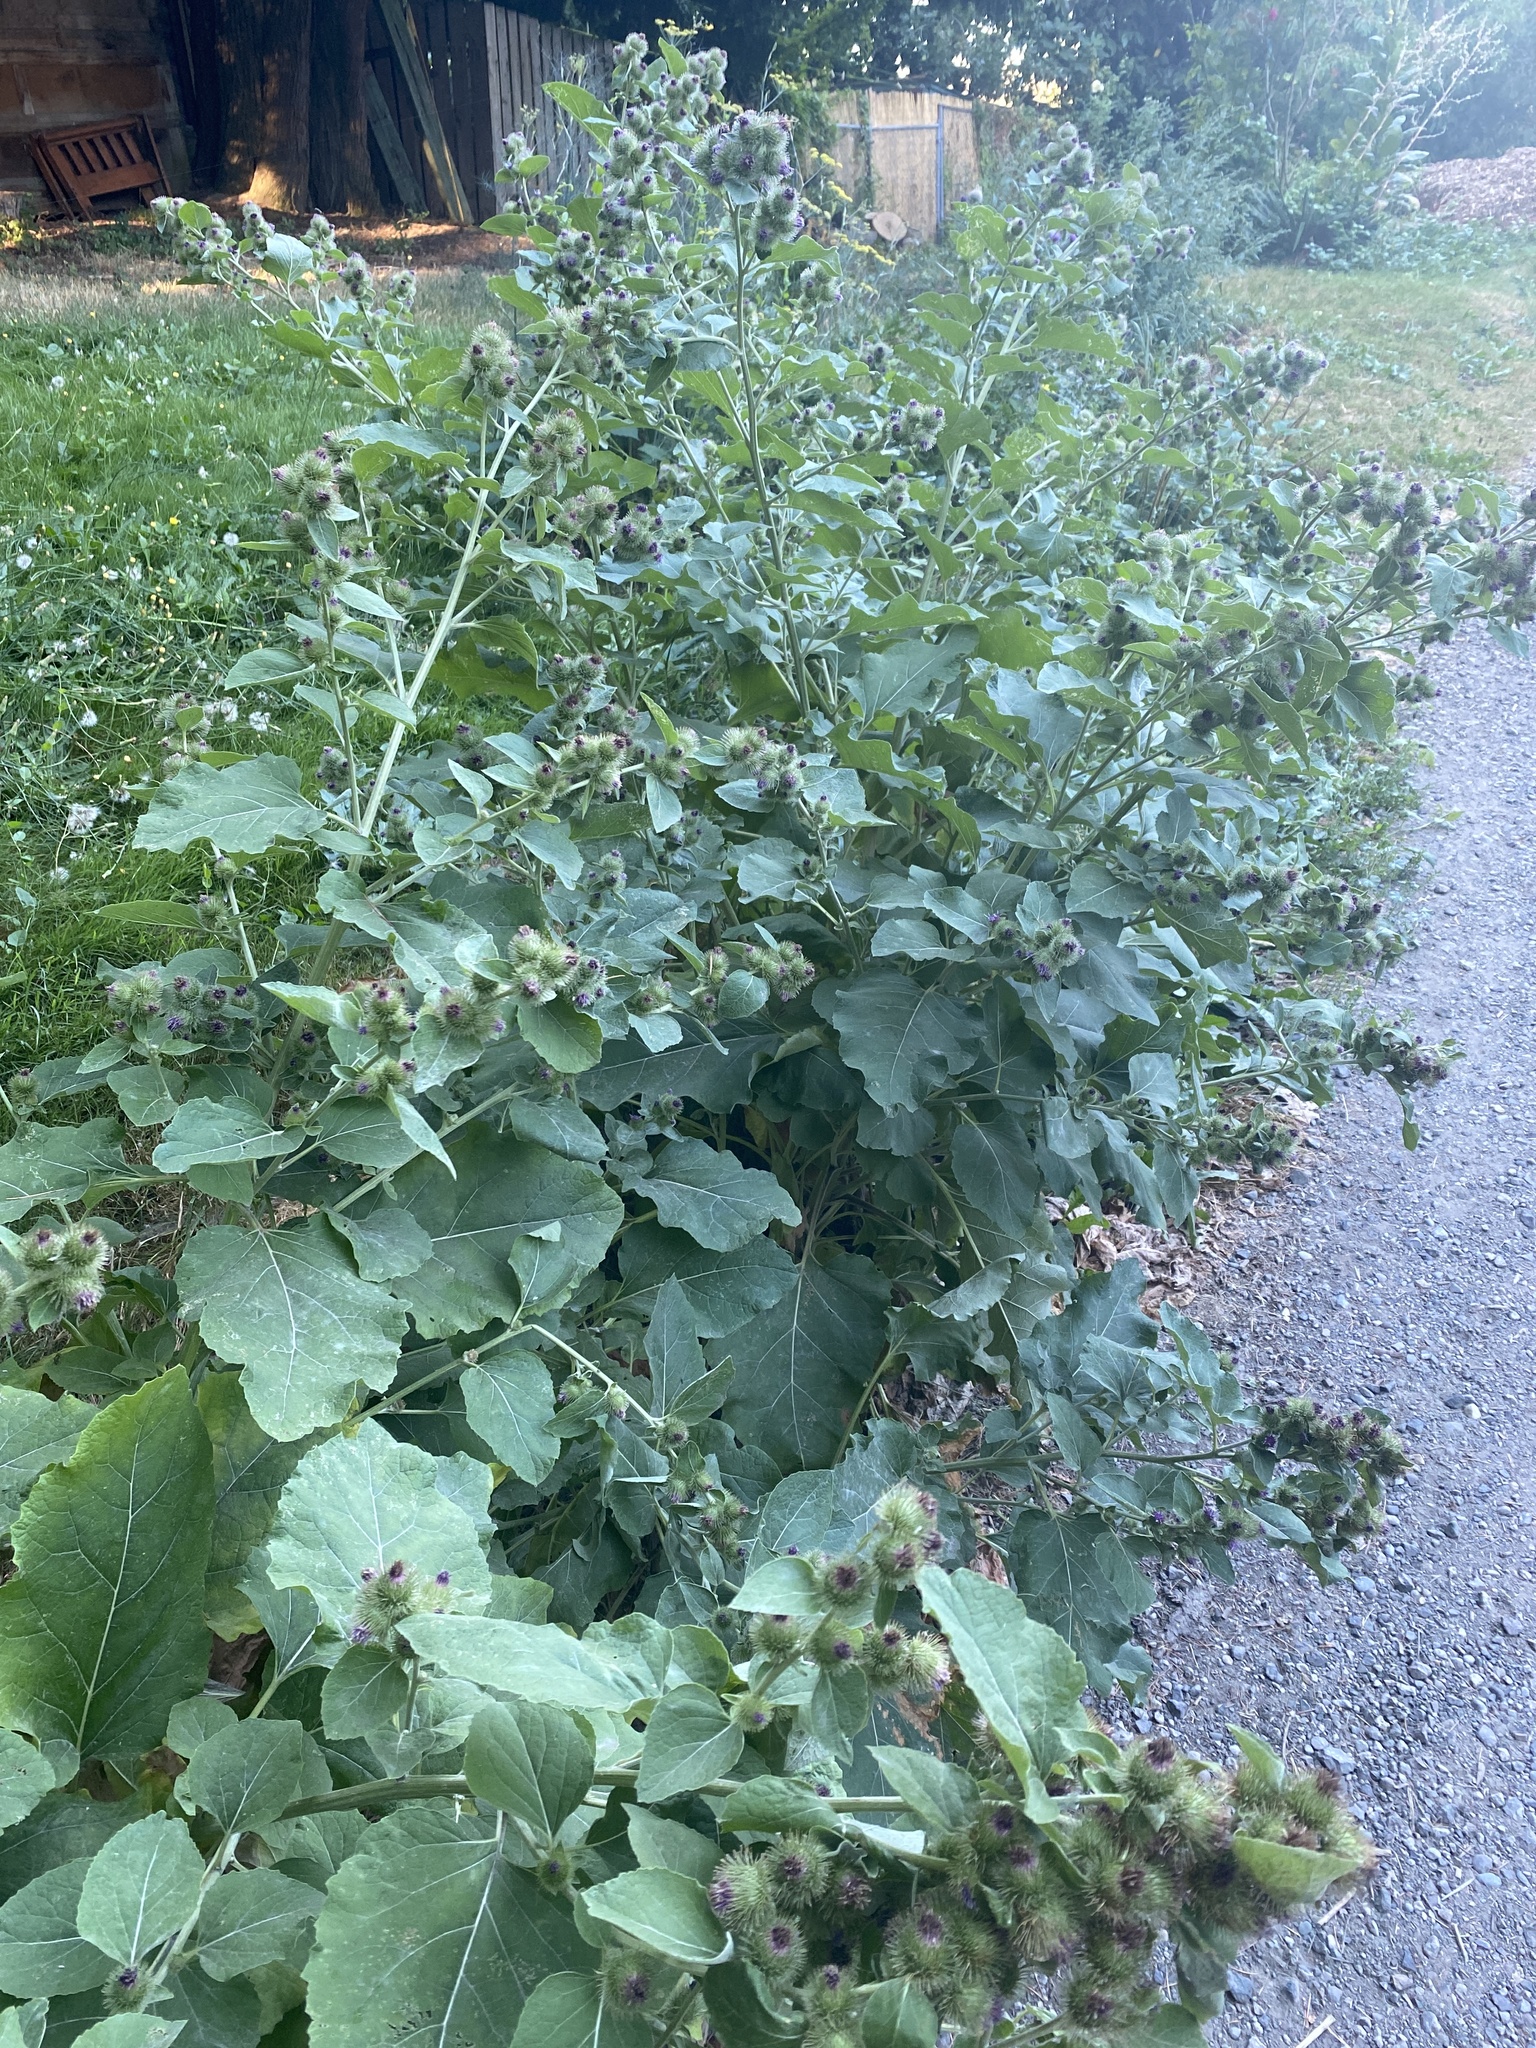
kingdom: Plantae
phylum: Tracheophyta
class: Magnoliopsida
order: Asterales
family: Asteraceae
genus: Arctium
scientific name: Arctium minus
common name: Lesser burdock
